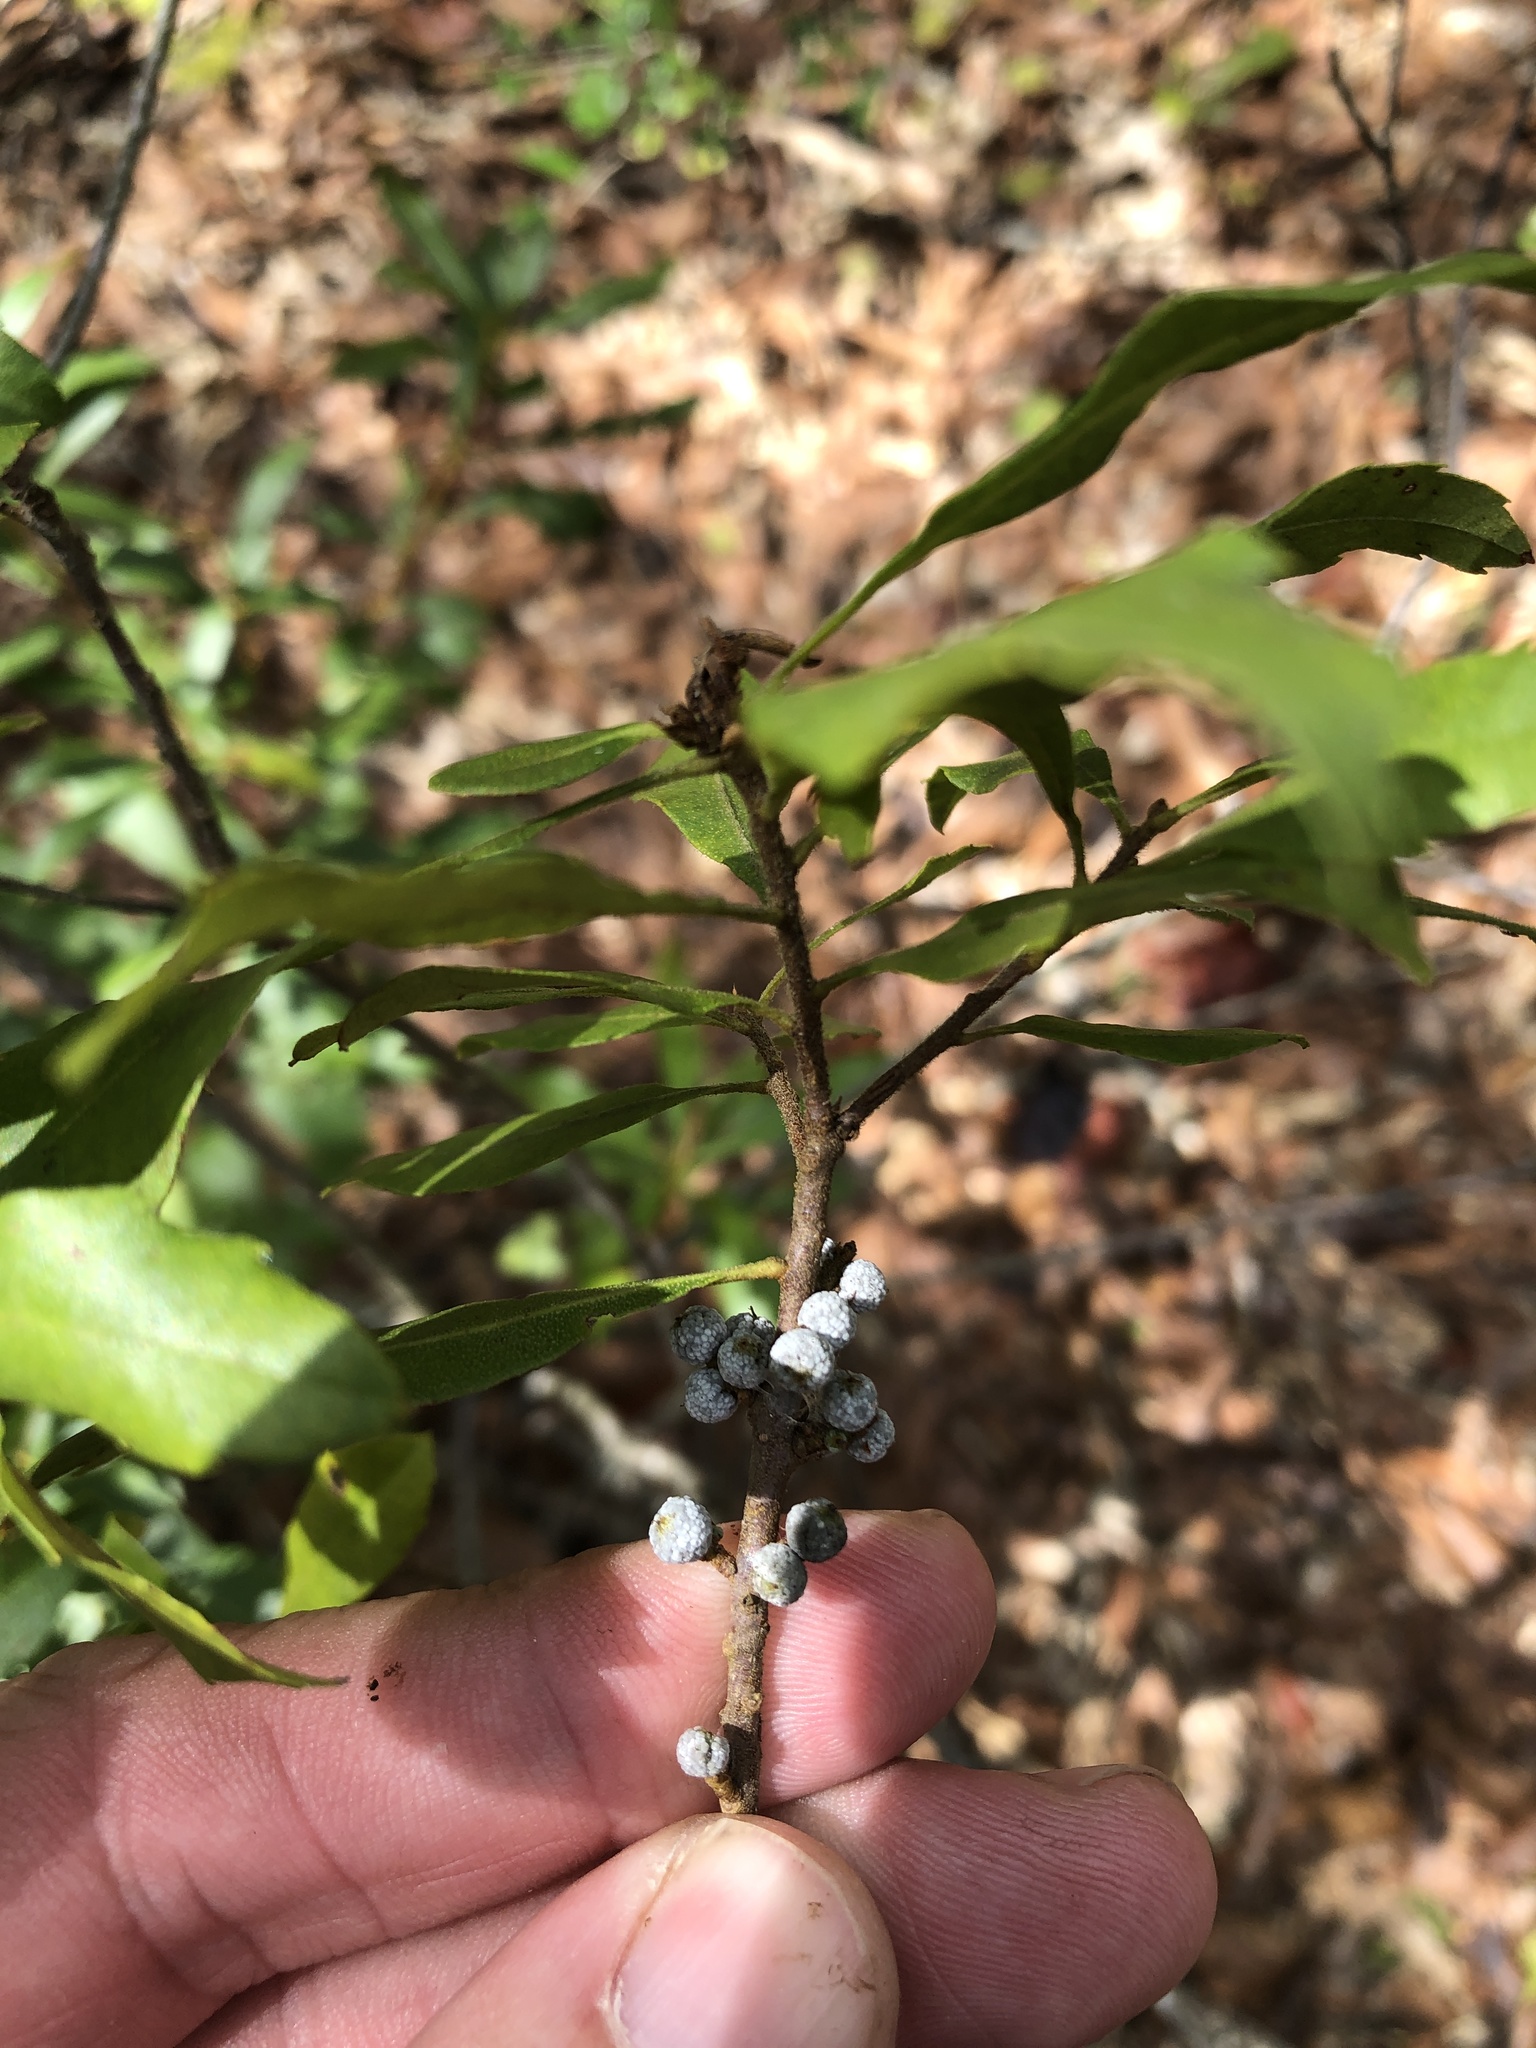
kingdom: Plantae
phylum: Tracheophyta
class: Magnoliopsida
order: Fagales
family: Myricaceae
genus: Morella
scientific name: Morella cerifera
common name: Wax myrtle
